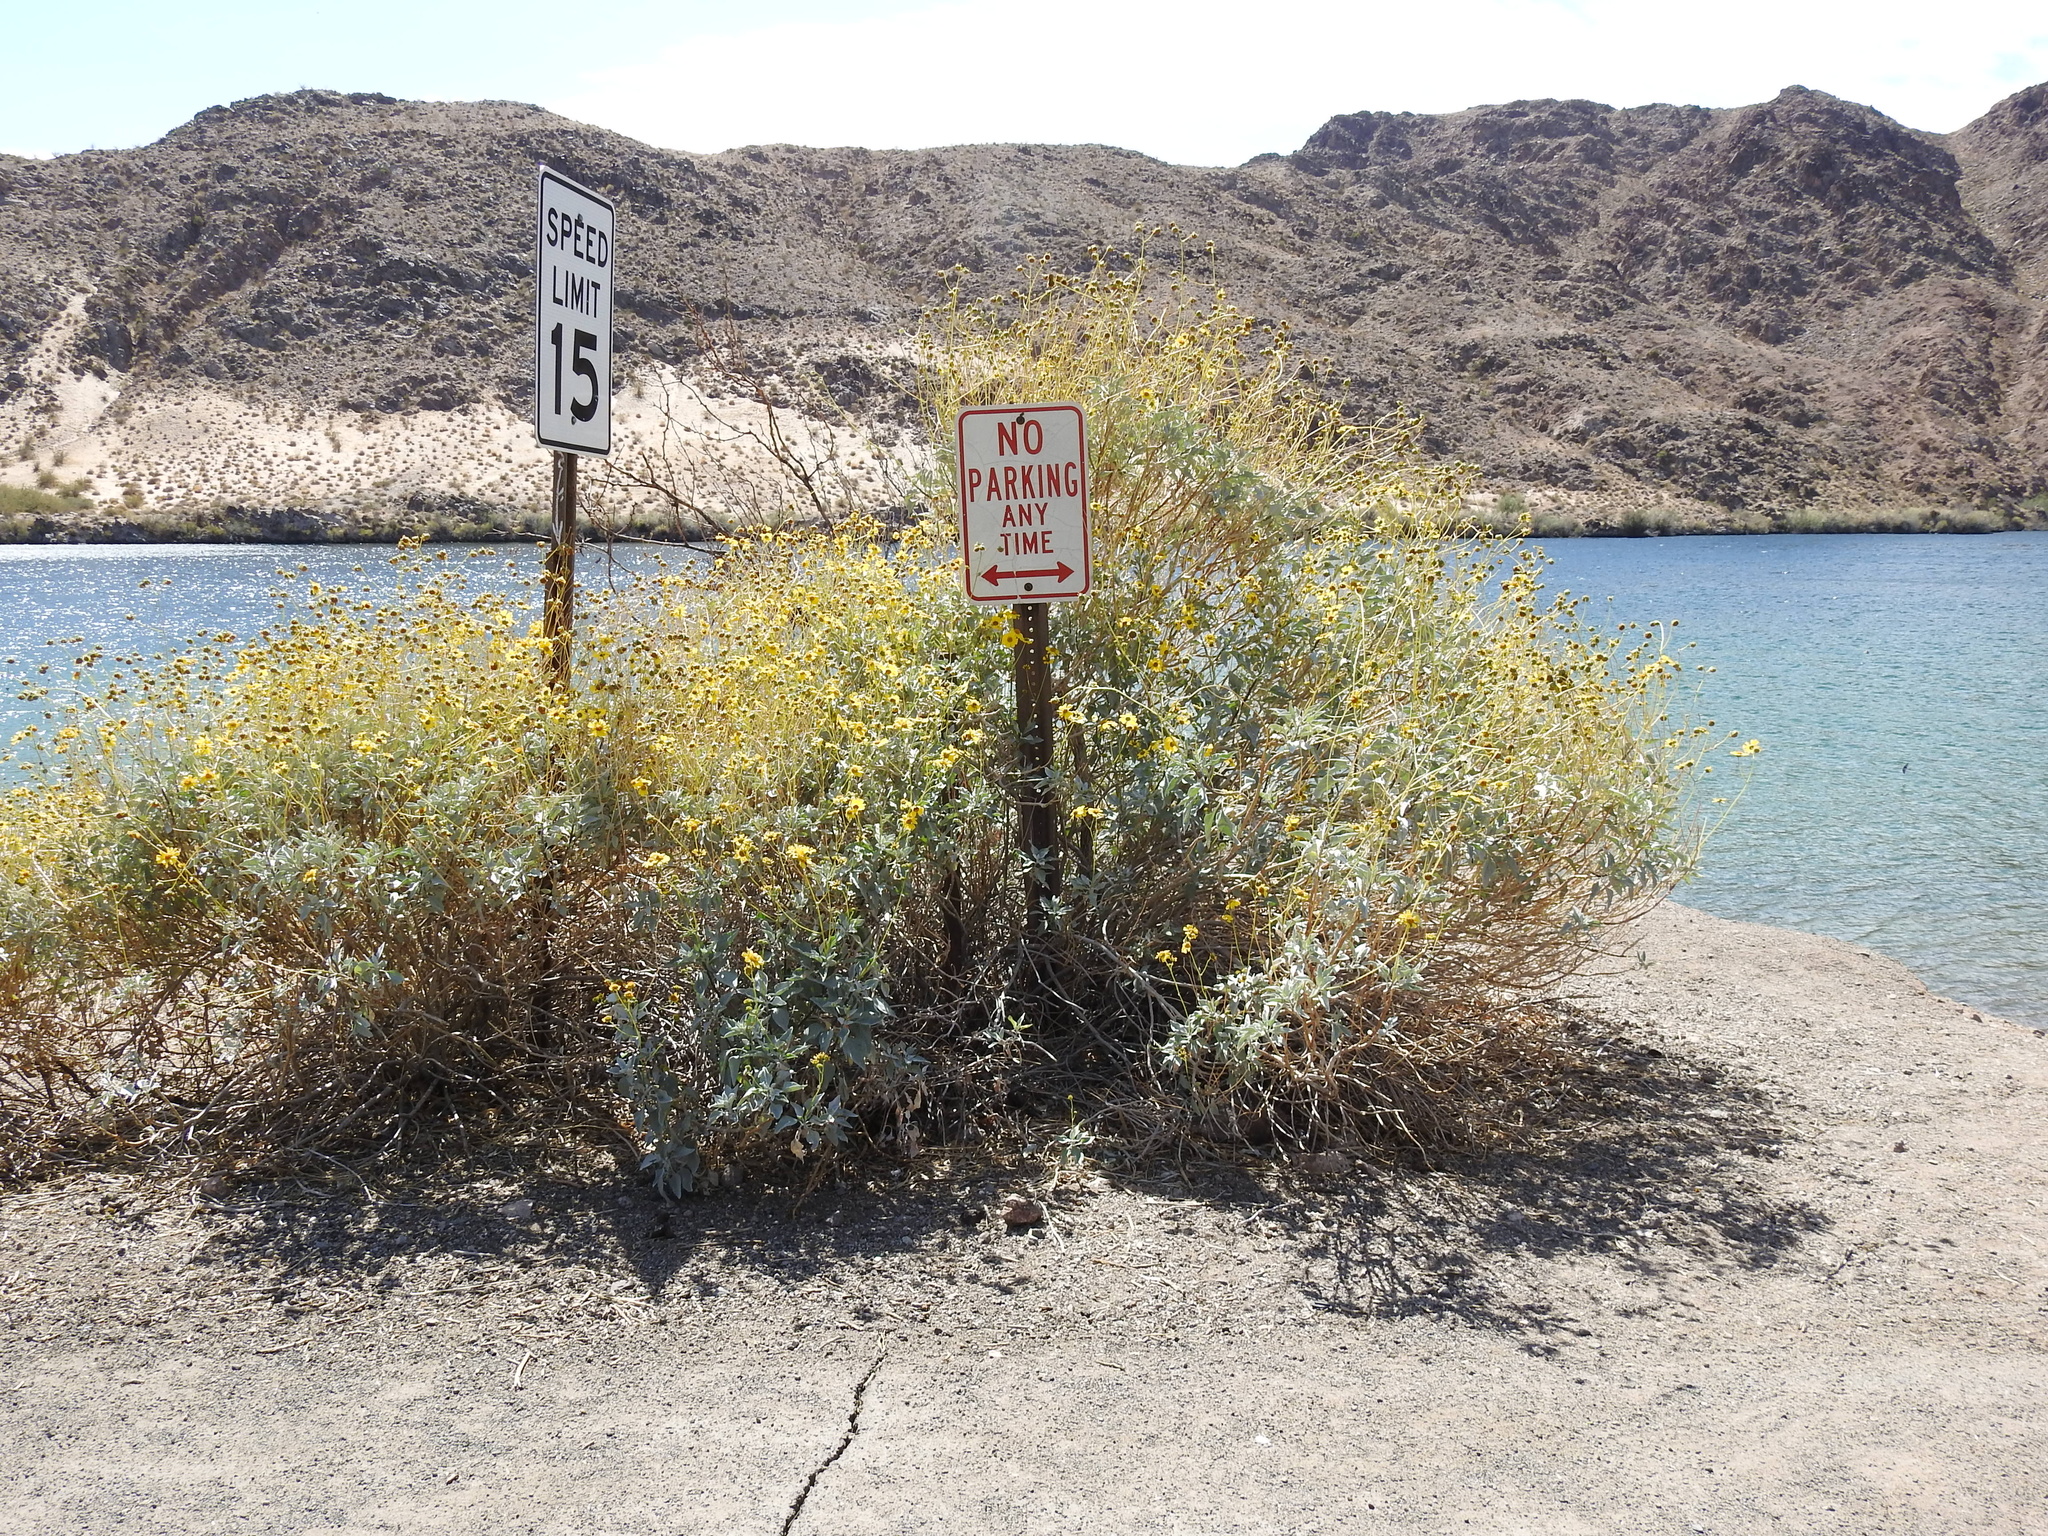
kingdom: Plantae
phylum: Tracheophyta
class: Magnoliopsida
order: Asterales
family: Asteraceae
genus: Encelia
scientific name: Encelia farinosa
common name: Brittlebush
